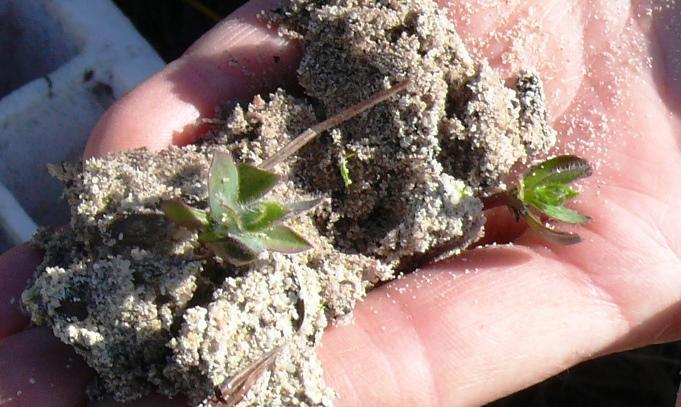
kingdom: Plantae
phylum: Tracheophyta
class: Magnoliopsida
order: Proteales
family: Proteaceae
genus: Protea
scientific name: Protea coronata
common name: Green sugarbush
